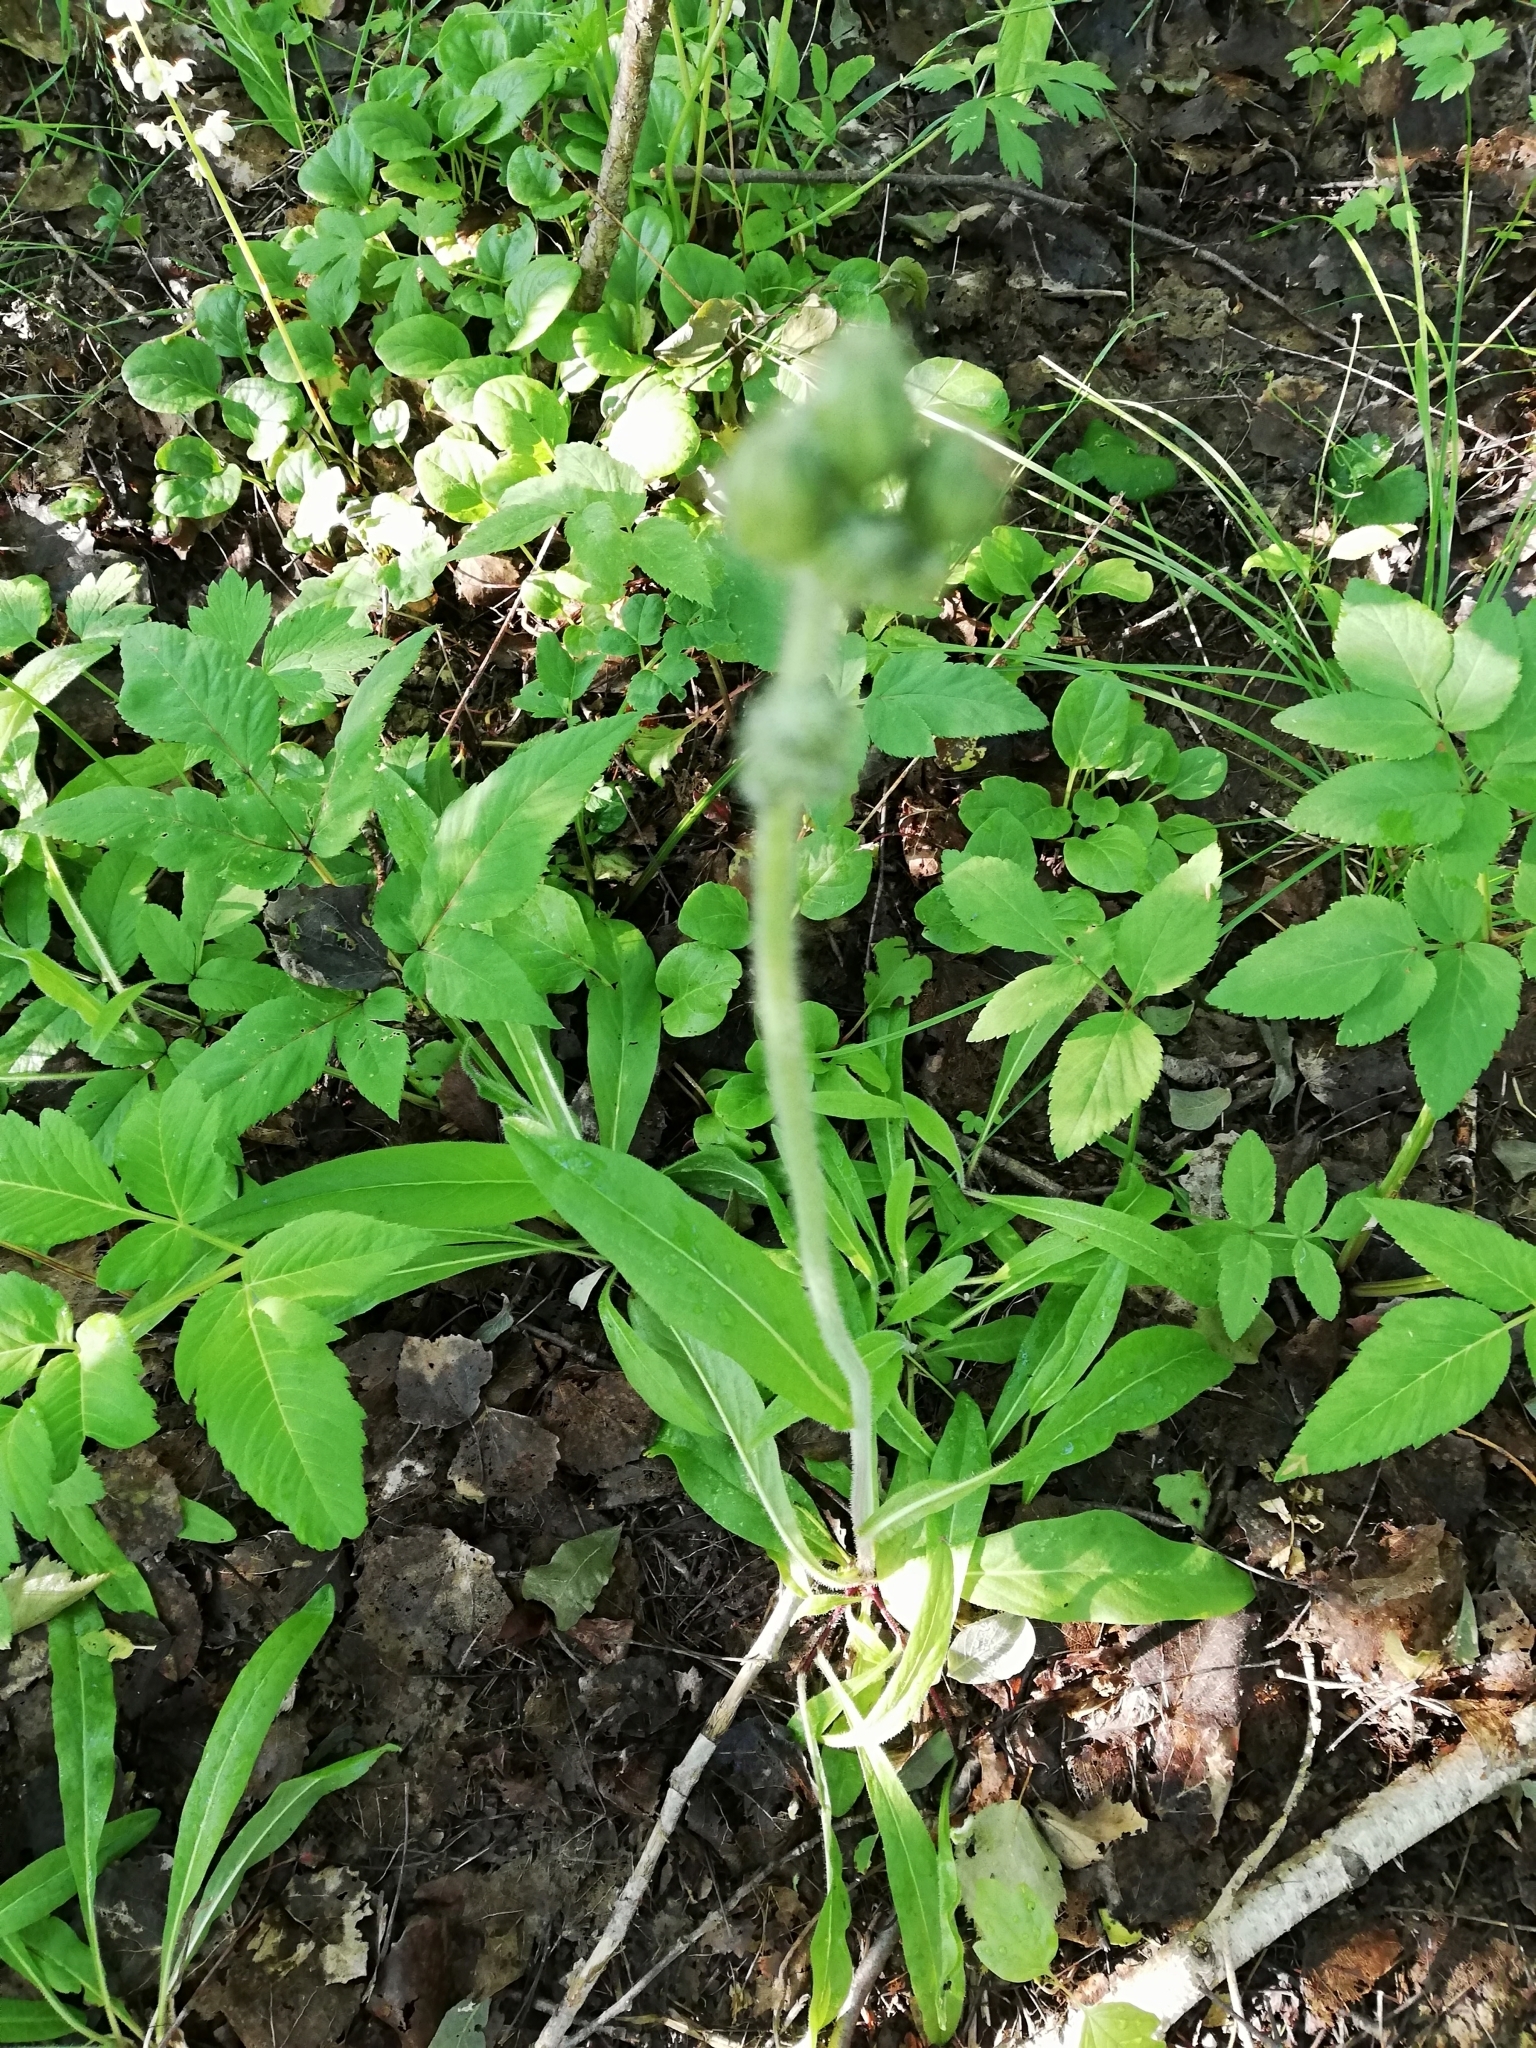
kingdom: Plantae
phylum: Tracheophyta
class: Magnoliopsida
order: Asterales
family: Asteraceae
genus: Pilosella
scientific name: Pilosella
